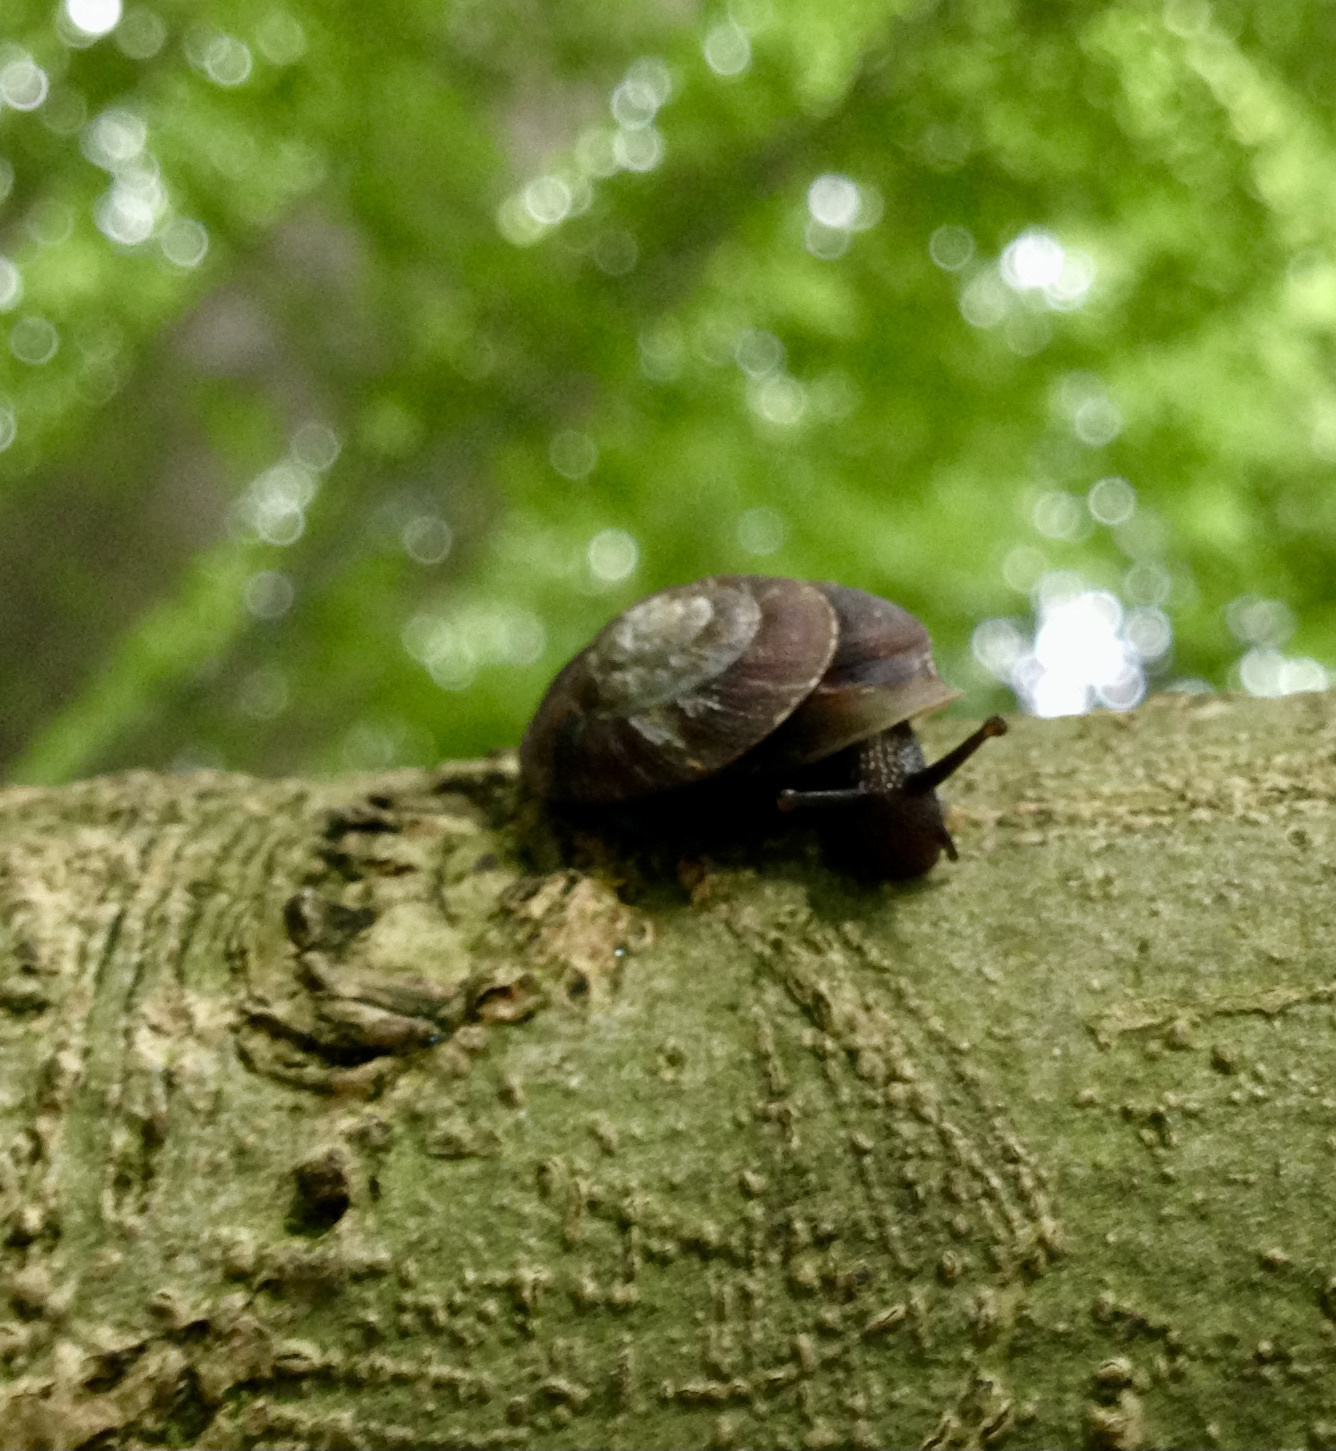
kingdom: Animalia
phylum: Mollusca
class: Gastropoda
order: Stylommatophora
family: Helicidae
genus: Helicigona
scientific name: Helicigona lapicida
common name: Lapidary snail
